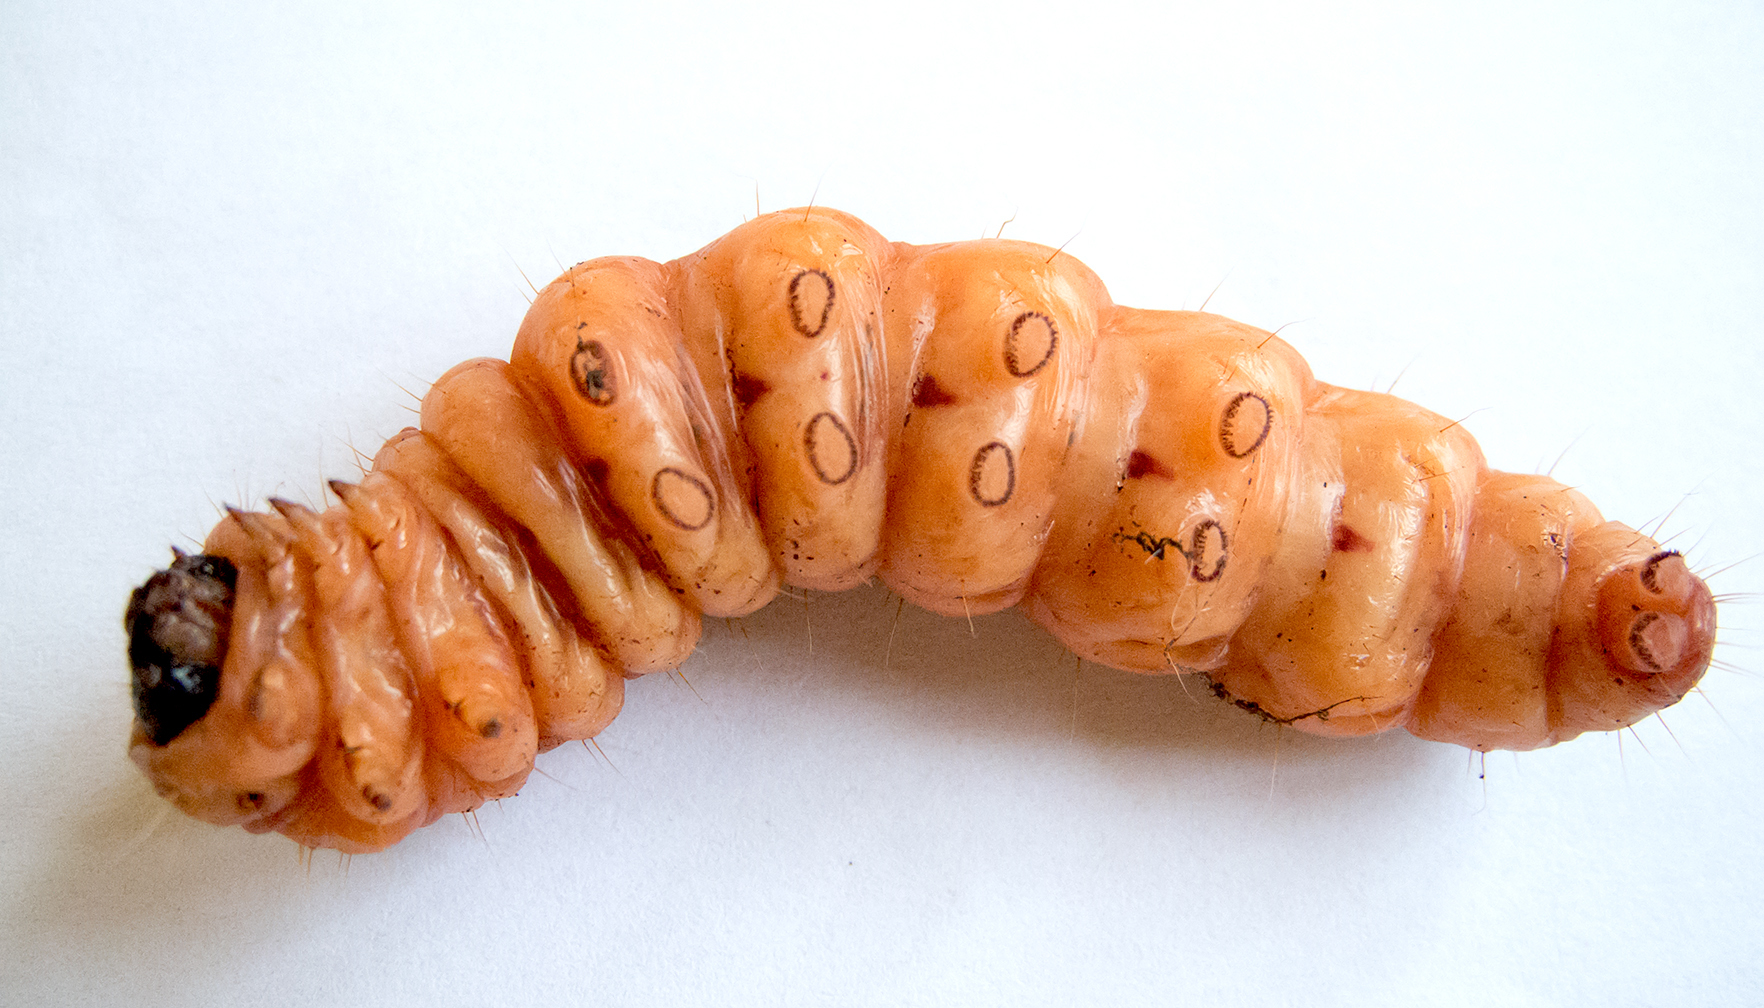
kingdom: Animalia
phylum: Arthropoda
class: Insecta
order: Lepidoptera
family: Cossidae
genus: Cossus
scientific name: Cossus cossus
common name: Goat moth
